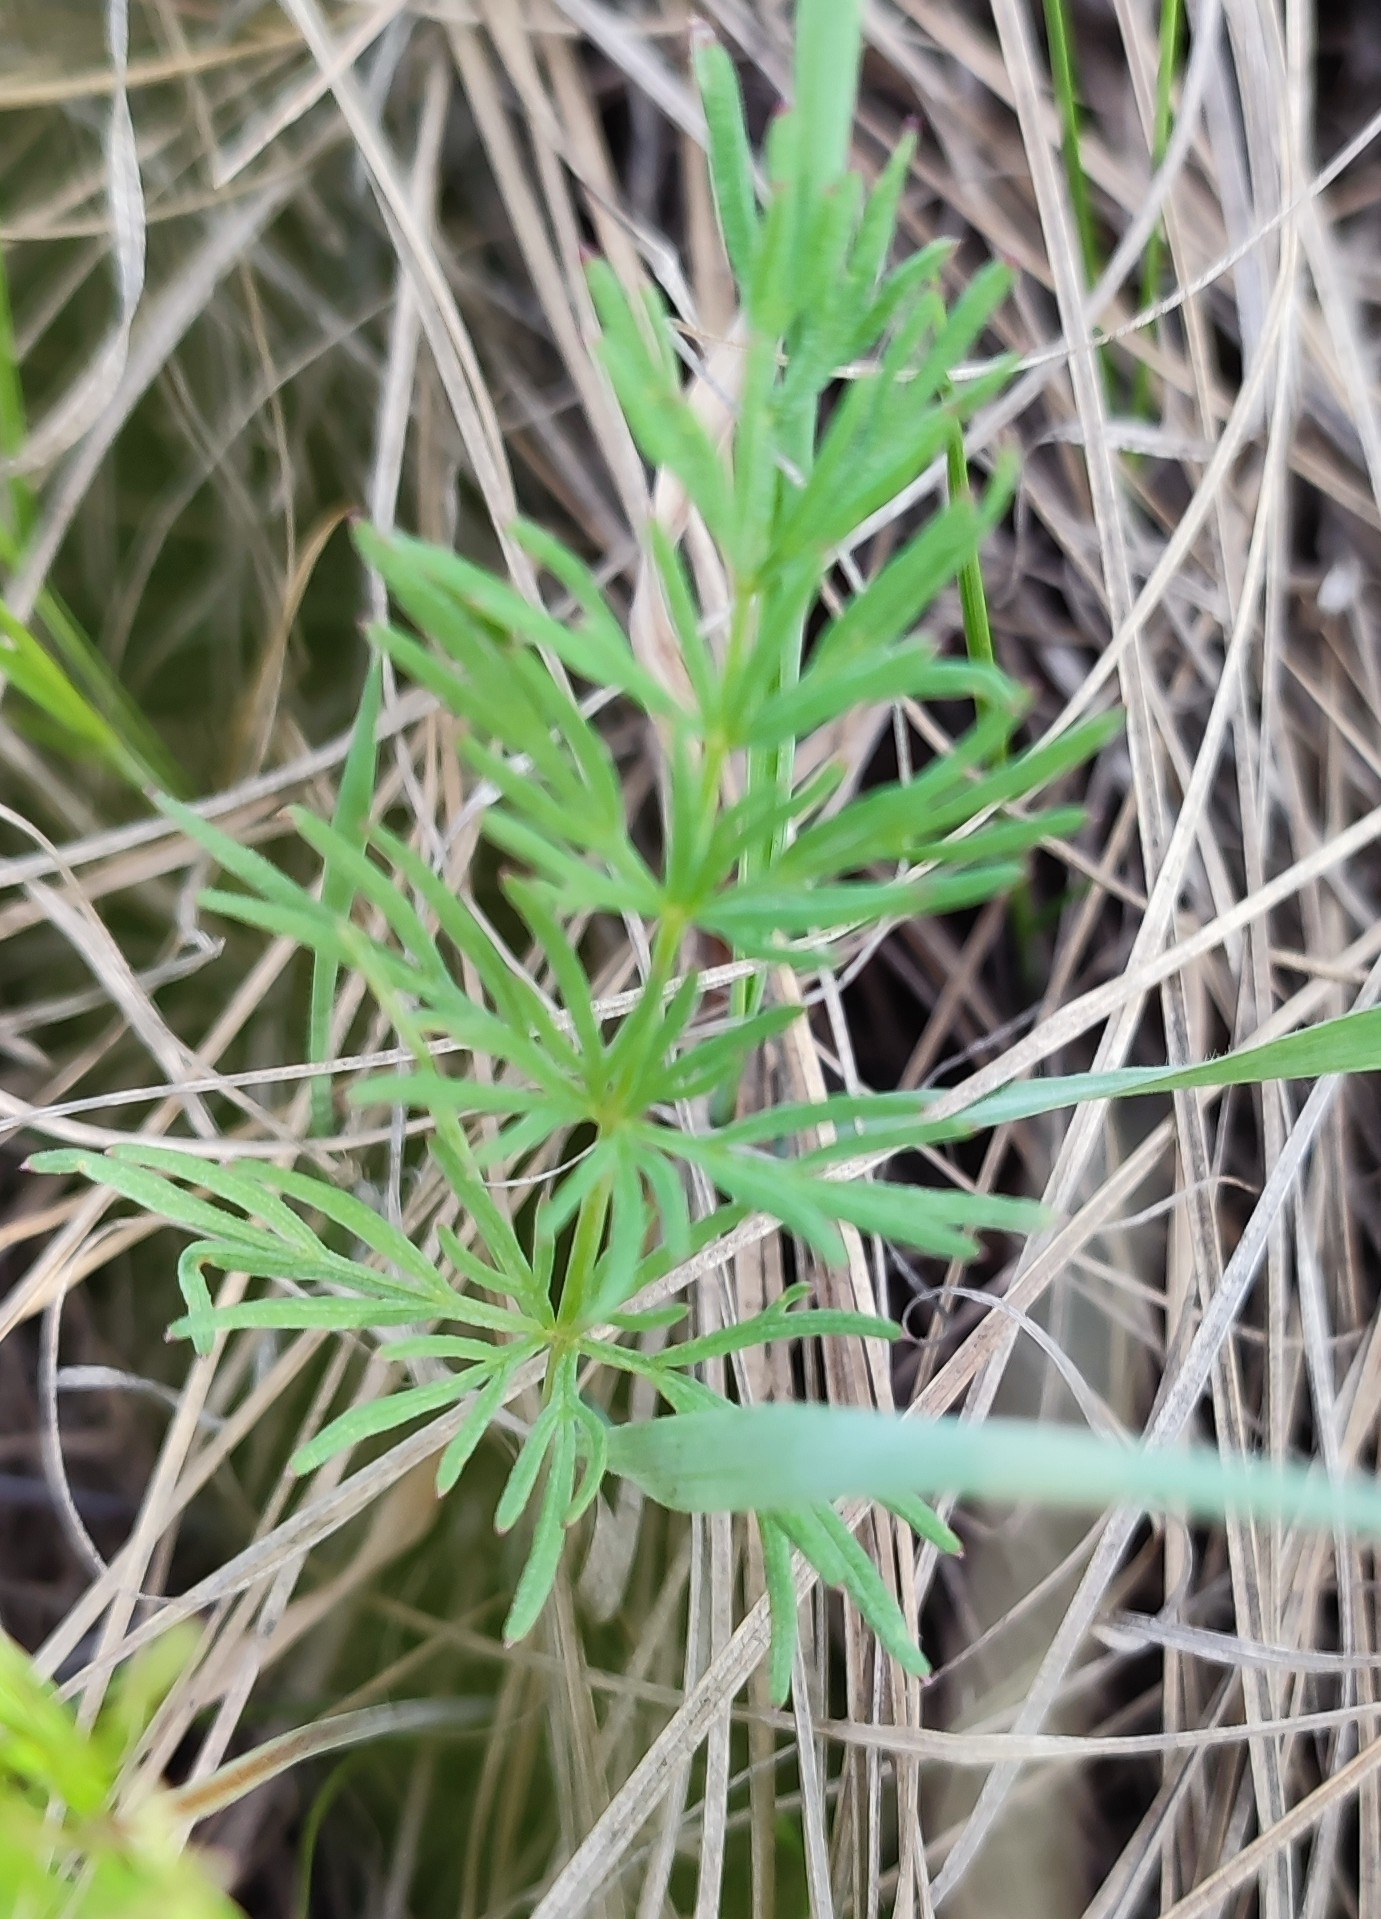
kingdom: Plantae
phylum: Tracheophyta
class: Magnoliopsida
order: Apiales
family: Apiaceae
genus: Kadenia
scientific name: Kadenia dubia
